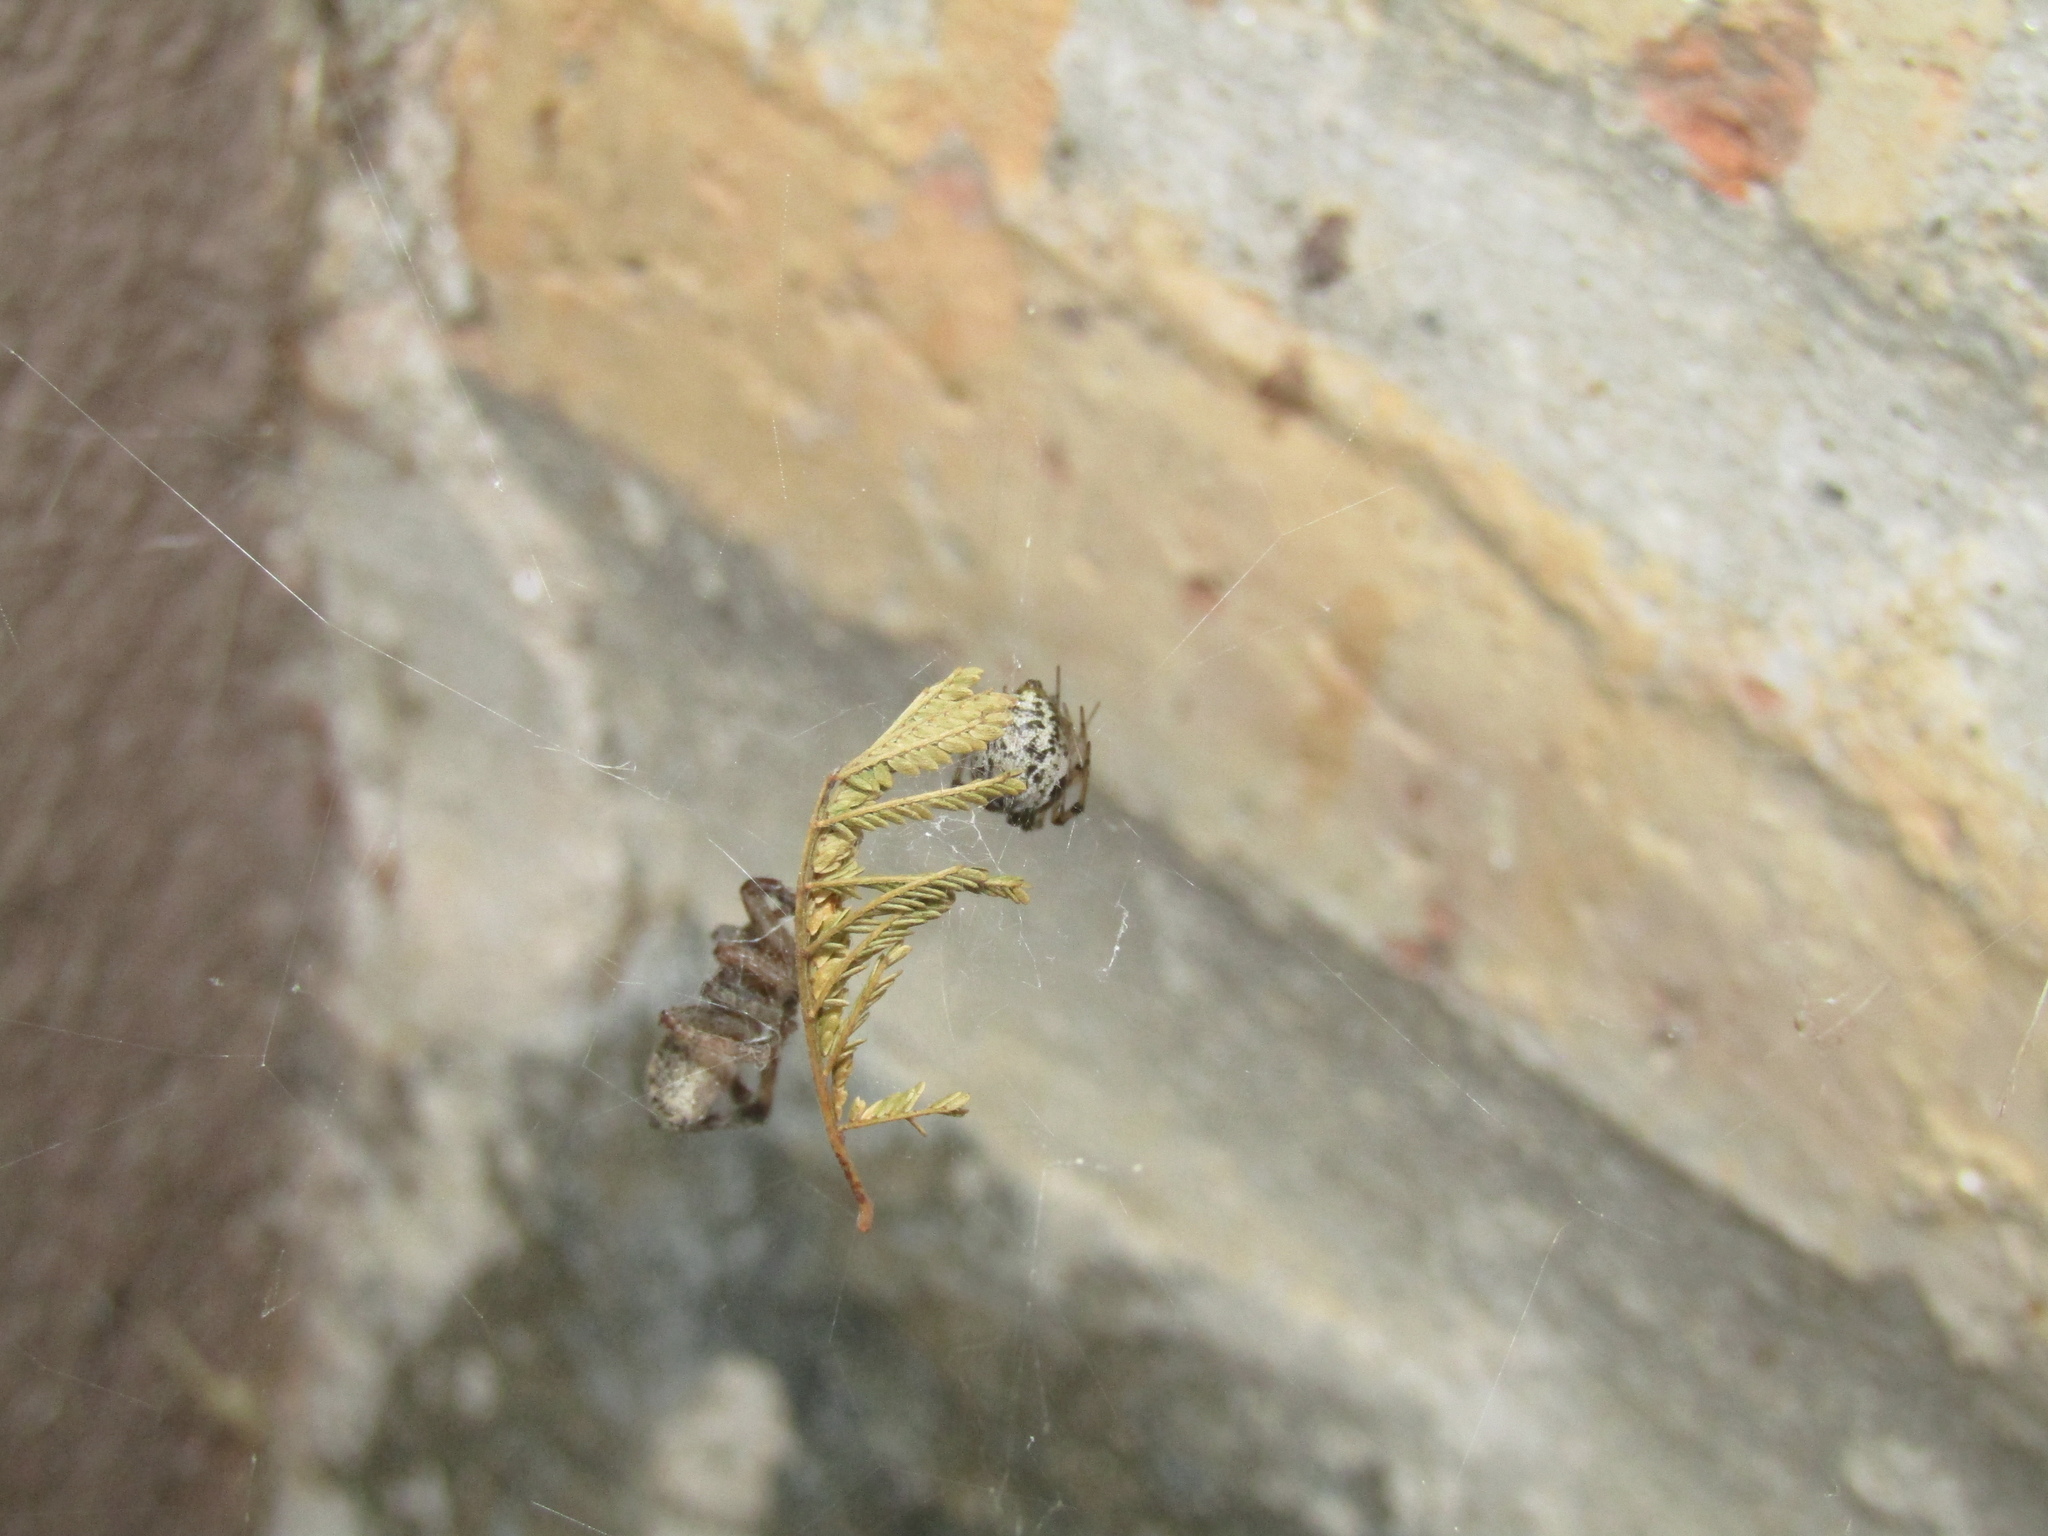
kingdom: Animalia
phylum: Arthropoda
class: Arachnida
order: Araneae
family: Lycosidae
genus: Schizocosa
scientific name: Schizocosa malitiosa
